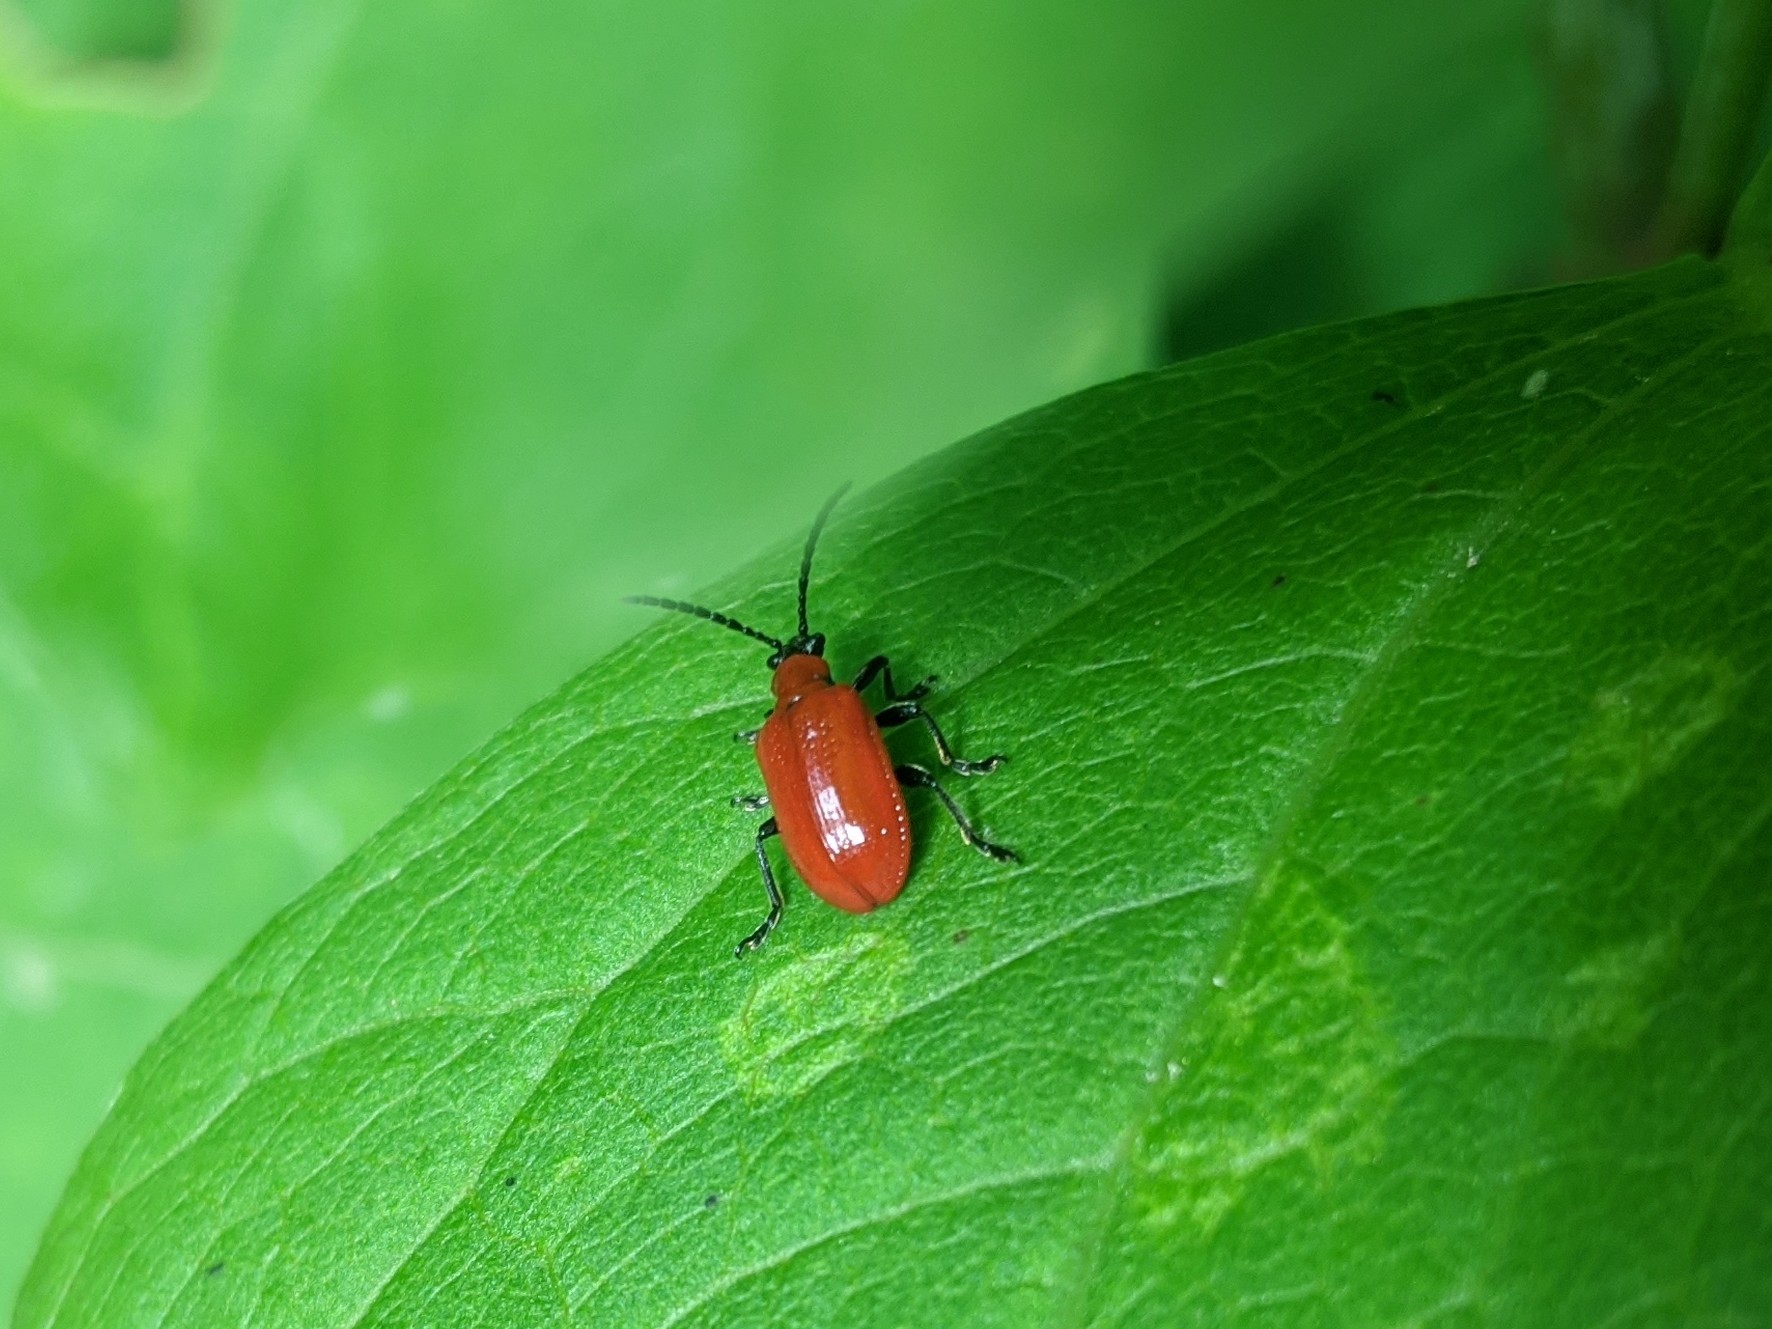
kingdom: Animalia
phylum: Arthropoda
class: Insecta
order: Coleoptera
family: Chrysomelidae
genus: Lilioceris
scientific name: Lilioceris lilii
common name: Lily beetle
